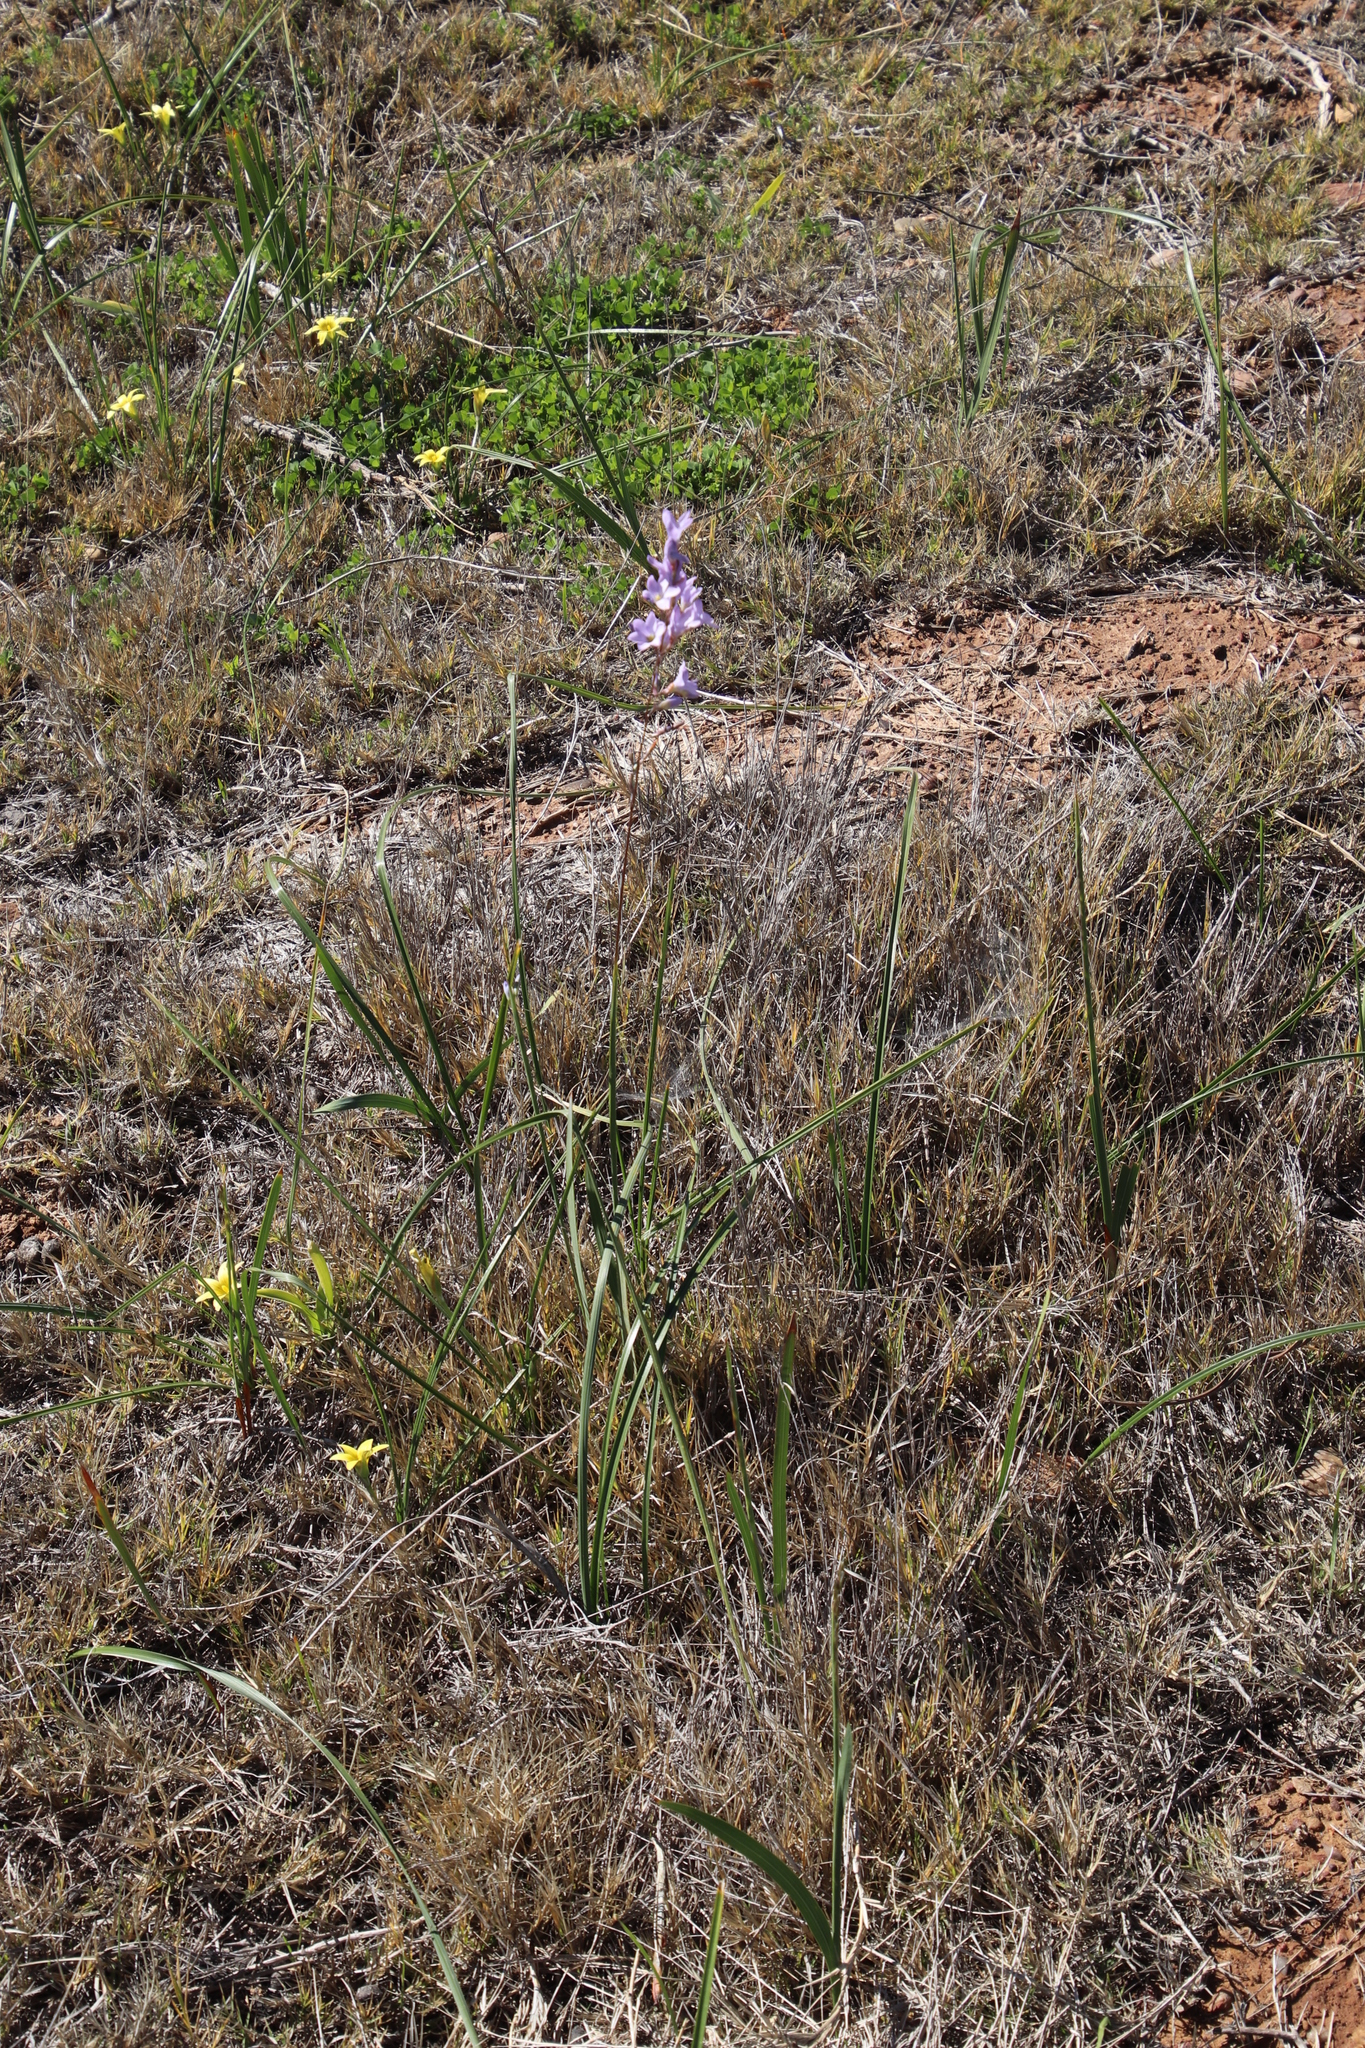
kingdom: Plantae
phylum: Tracheophyta
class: Liliopsida
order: Asparagales
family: Iridaceae
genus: Ixia
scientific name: Ixia rapunculoides
